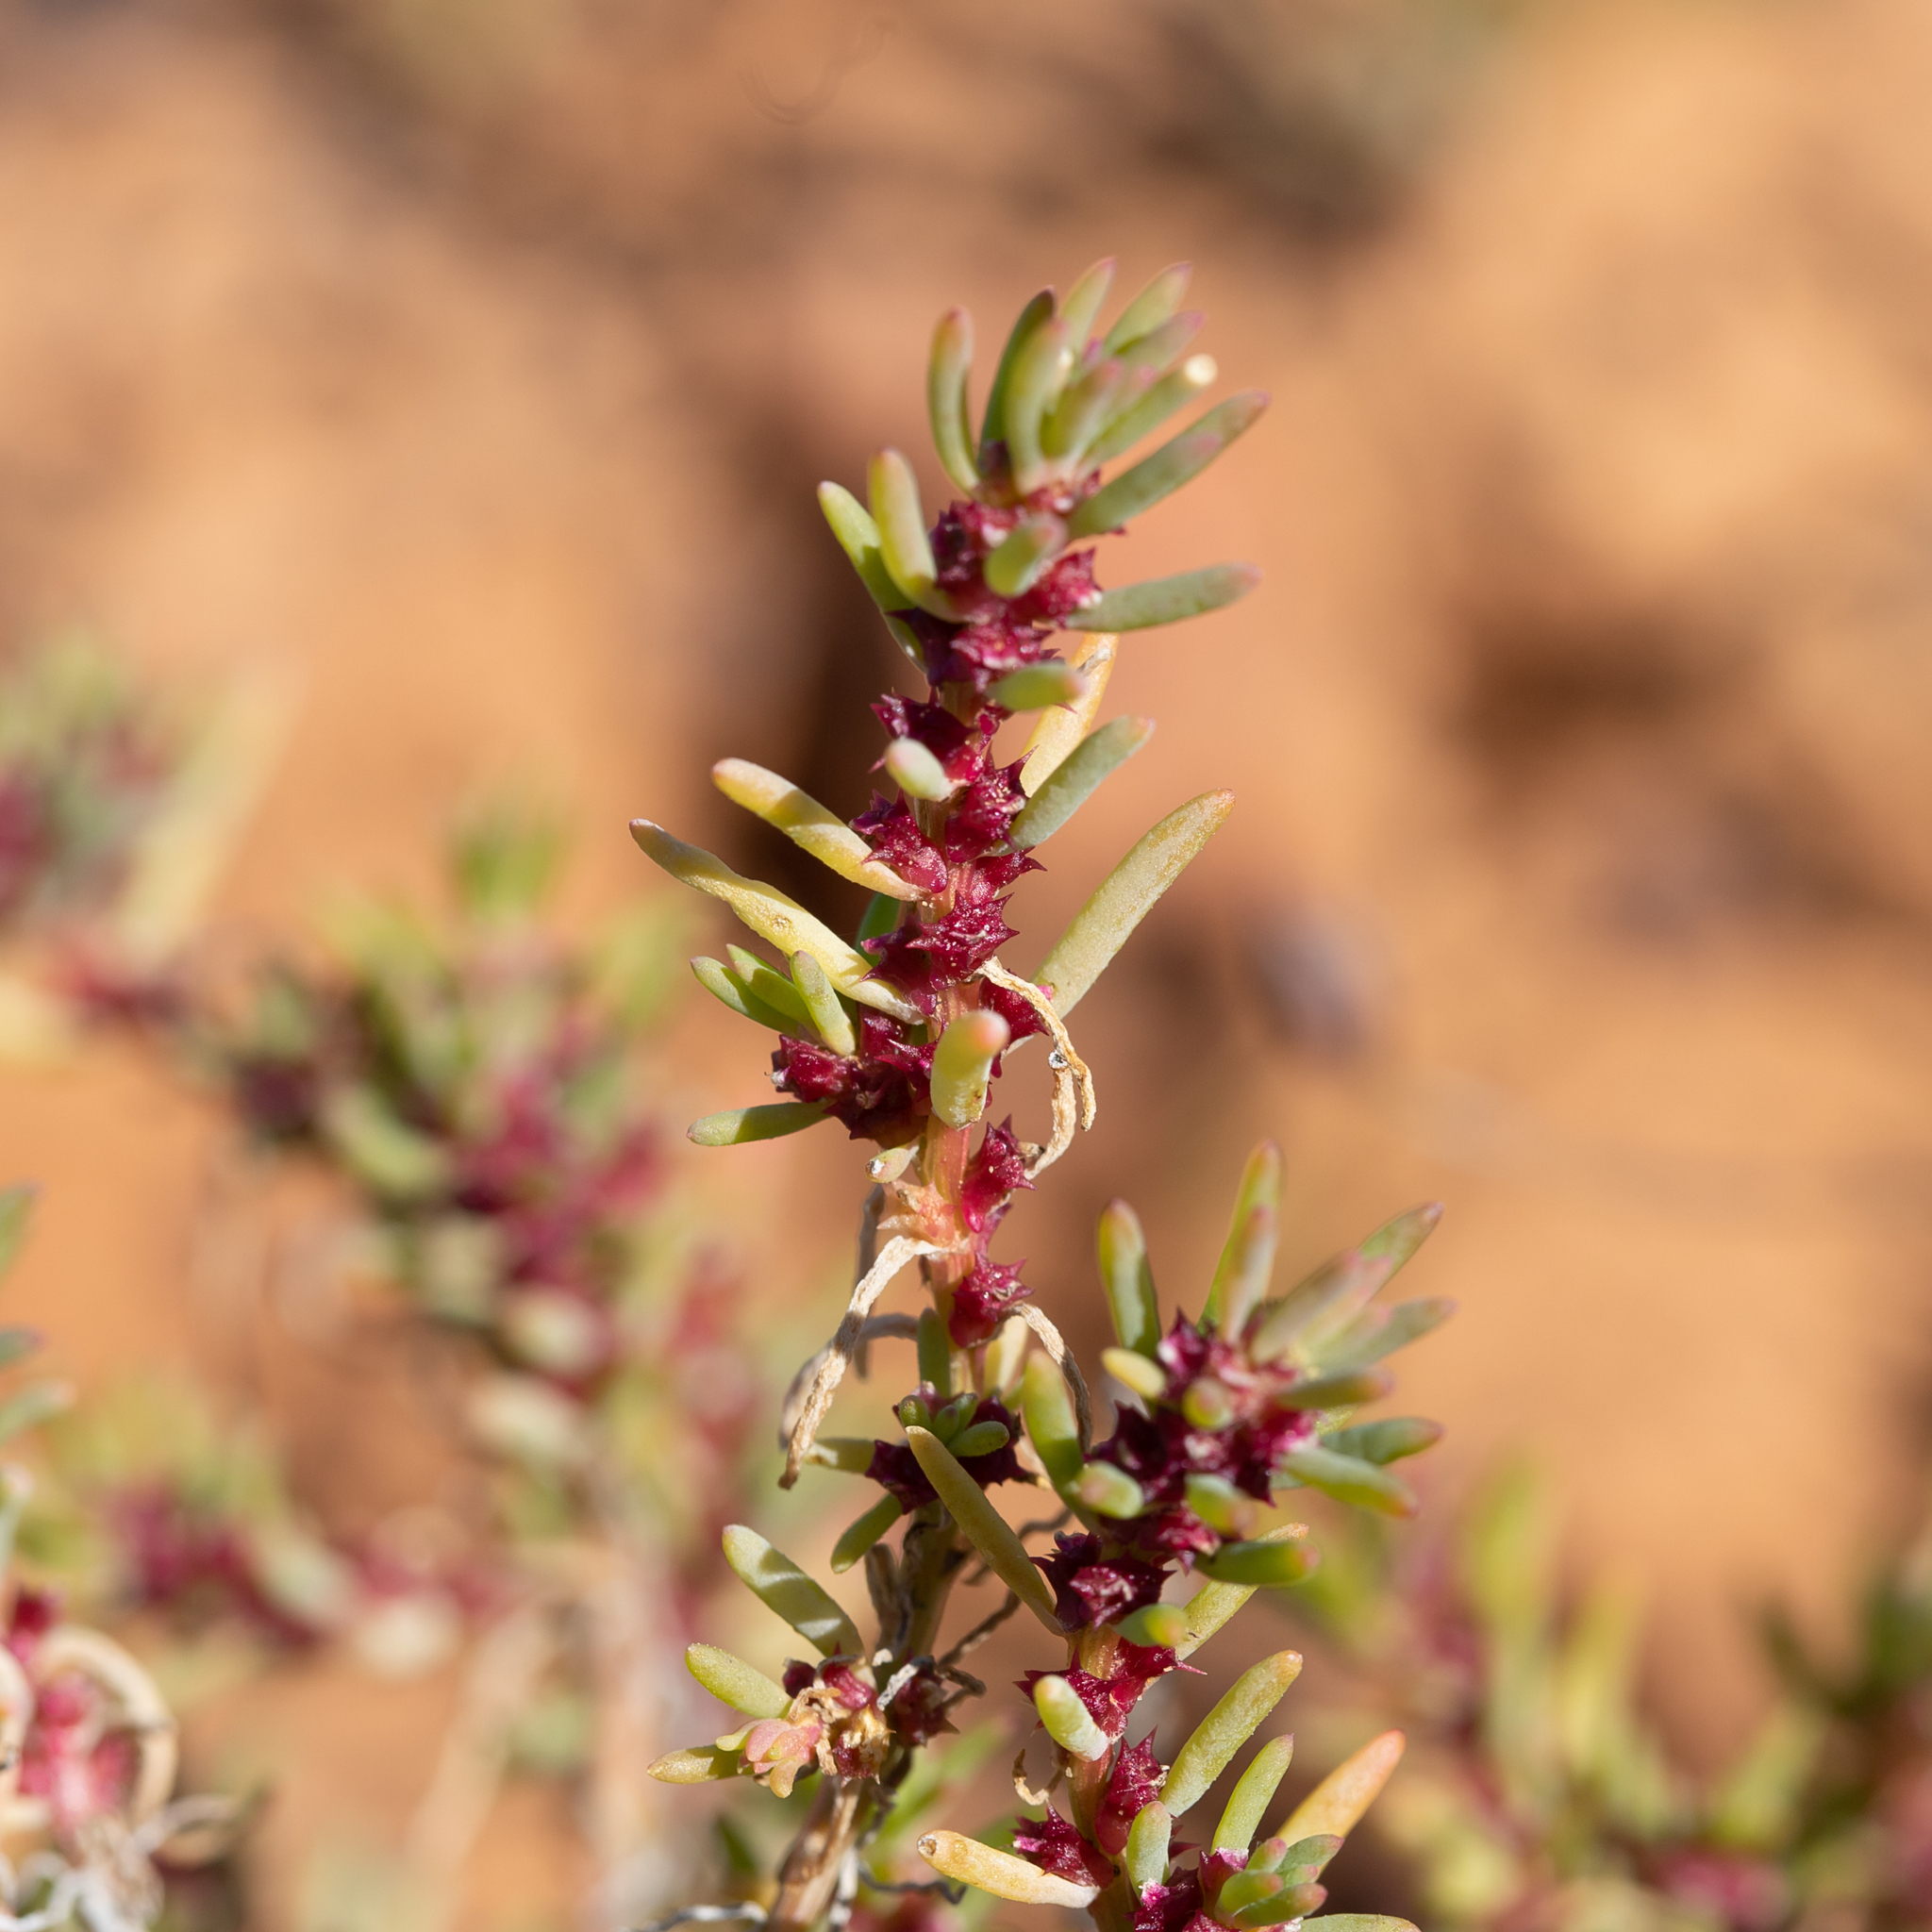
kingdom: Plantae
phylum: Tracheophyta
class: Magnoliopsida
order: Caryophyllales
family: Amaranthaceae
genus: Sclerolaena
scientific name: Sclerolaena calcarata
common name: Red copperbur
